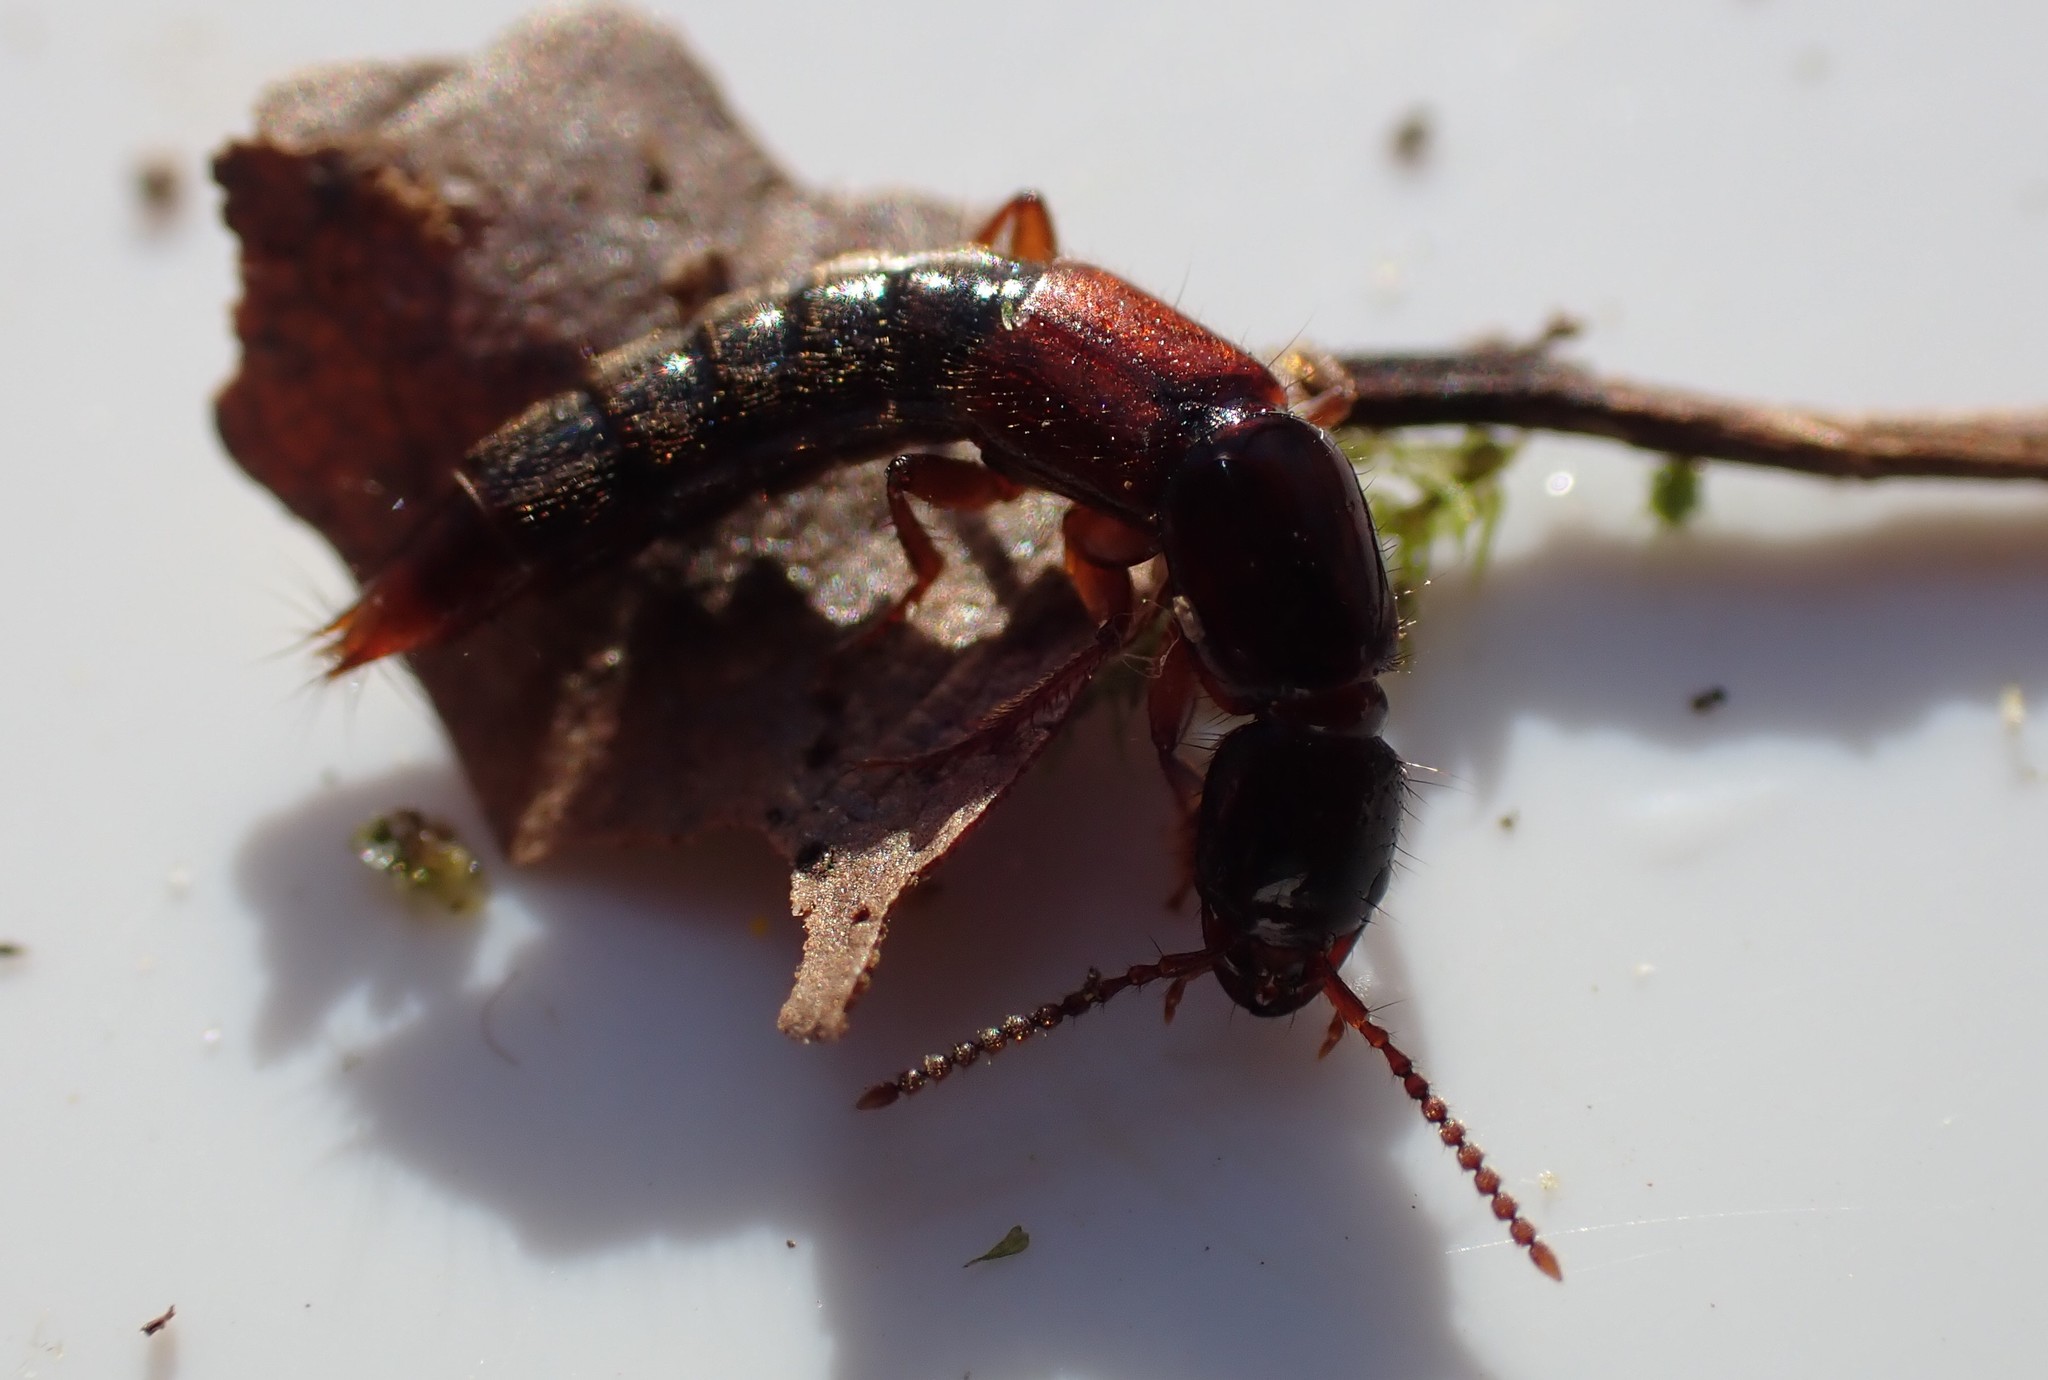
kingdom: Animalia
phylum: Arthropoda
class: Insecta
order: Coleoptera
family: Staphylinidae
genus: Othius
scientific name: Othius punctulatus
